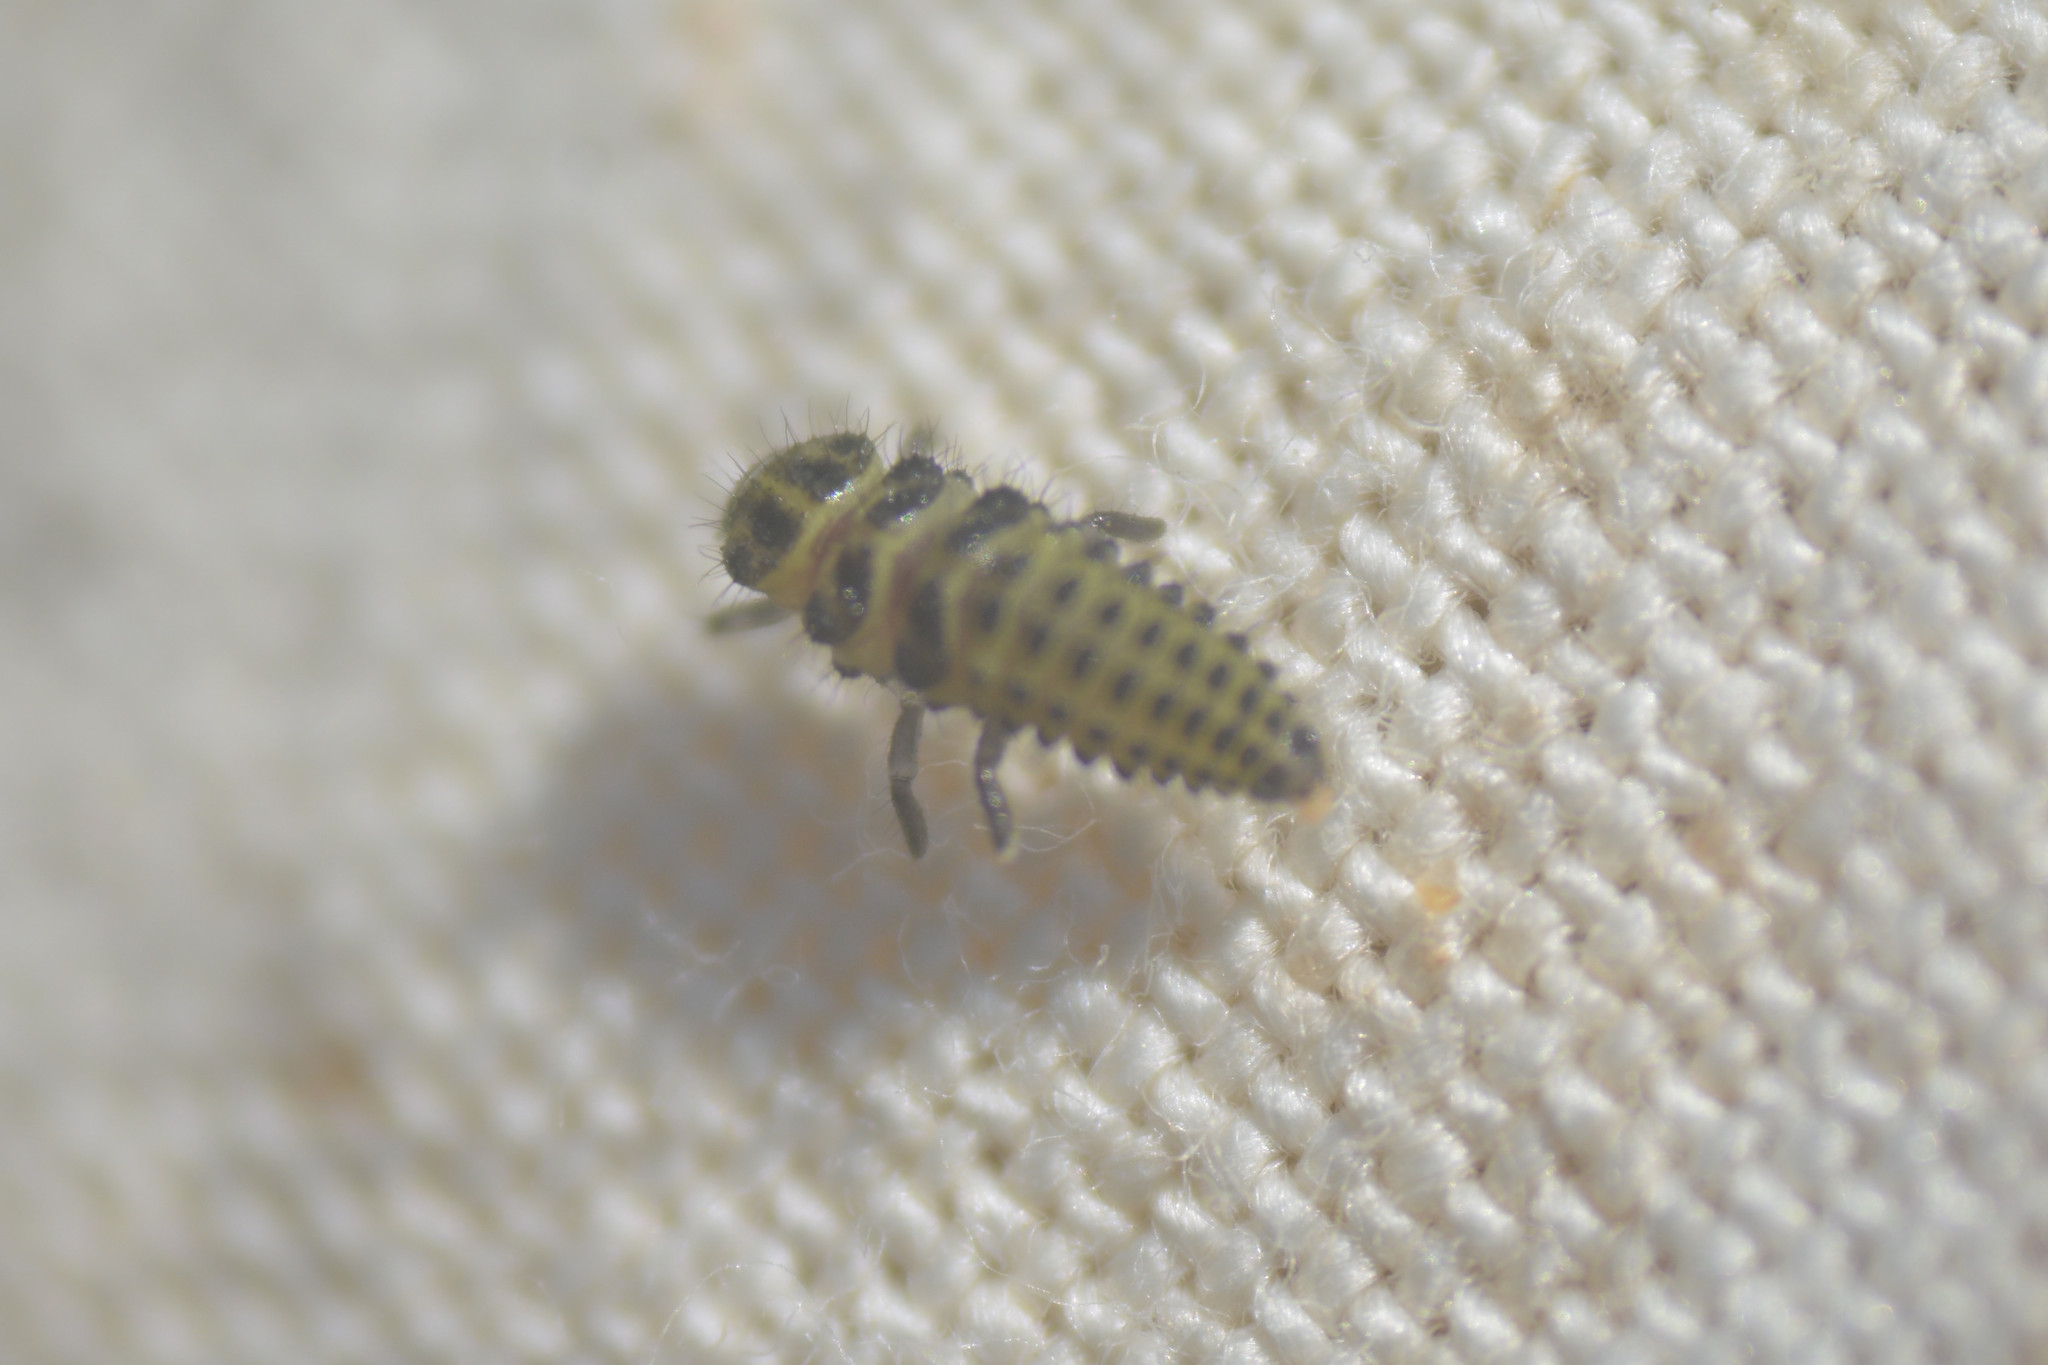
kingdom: Animalia
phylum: Arthropoda
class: Insecta
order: Coleoptera
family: Coccinellidae
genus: Psyllobora
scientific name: Psyllobora vigintiduopunctata
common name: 22-spot ladybird
